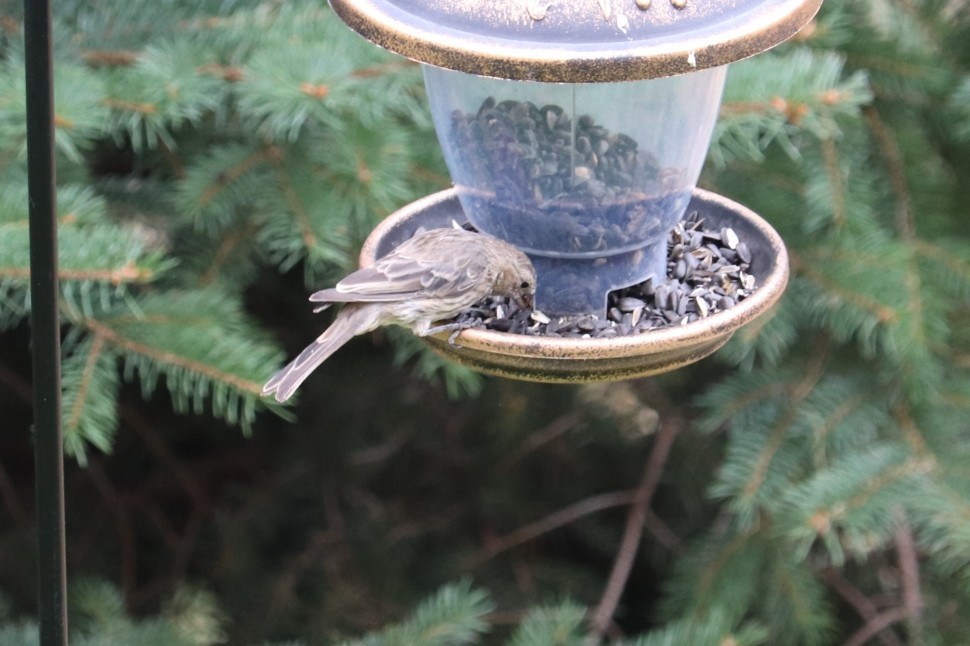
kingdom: Animalia
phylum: Chordata
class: Aves
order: Passeriformes
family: Fringillidae
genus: Haemorhous
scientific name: Haemorhous mexicanus
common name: House finch
